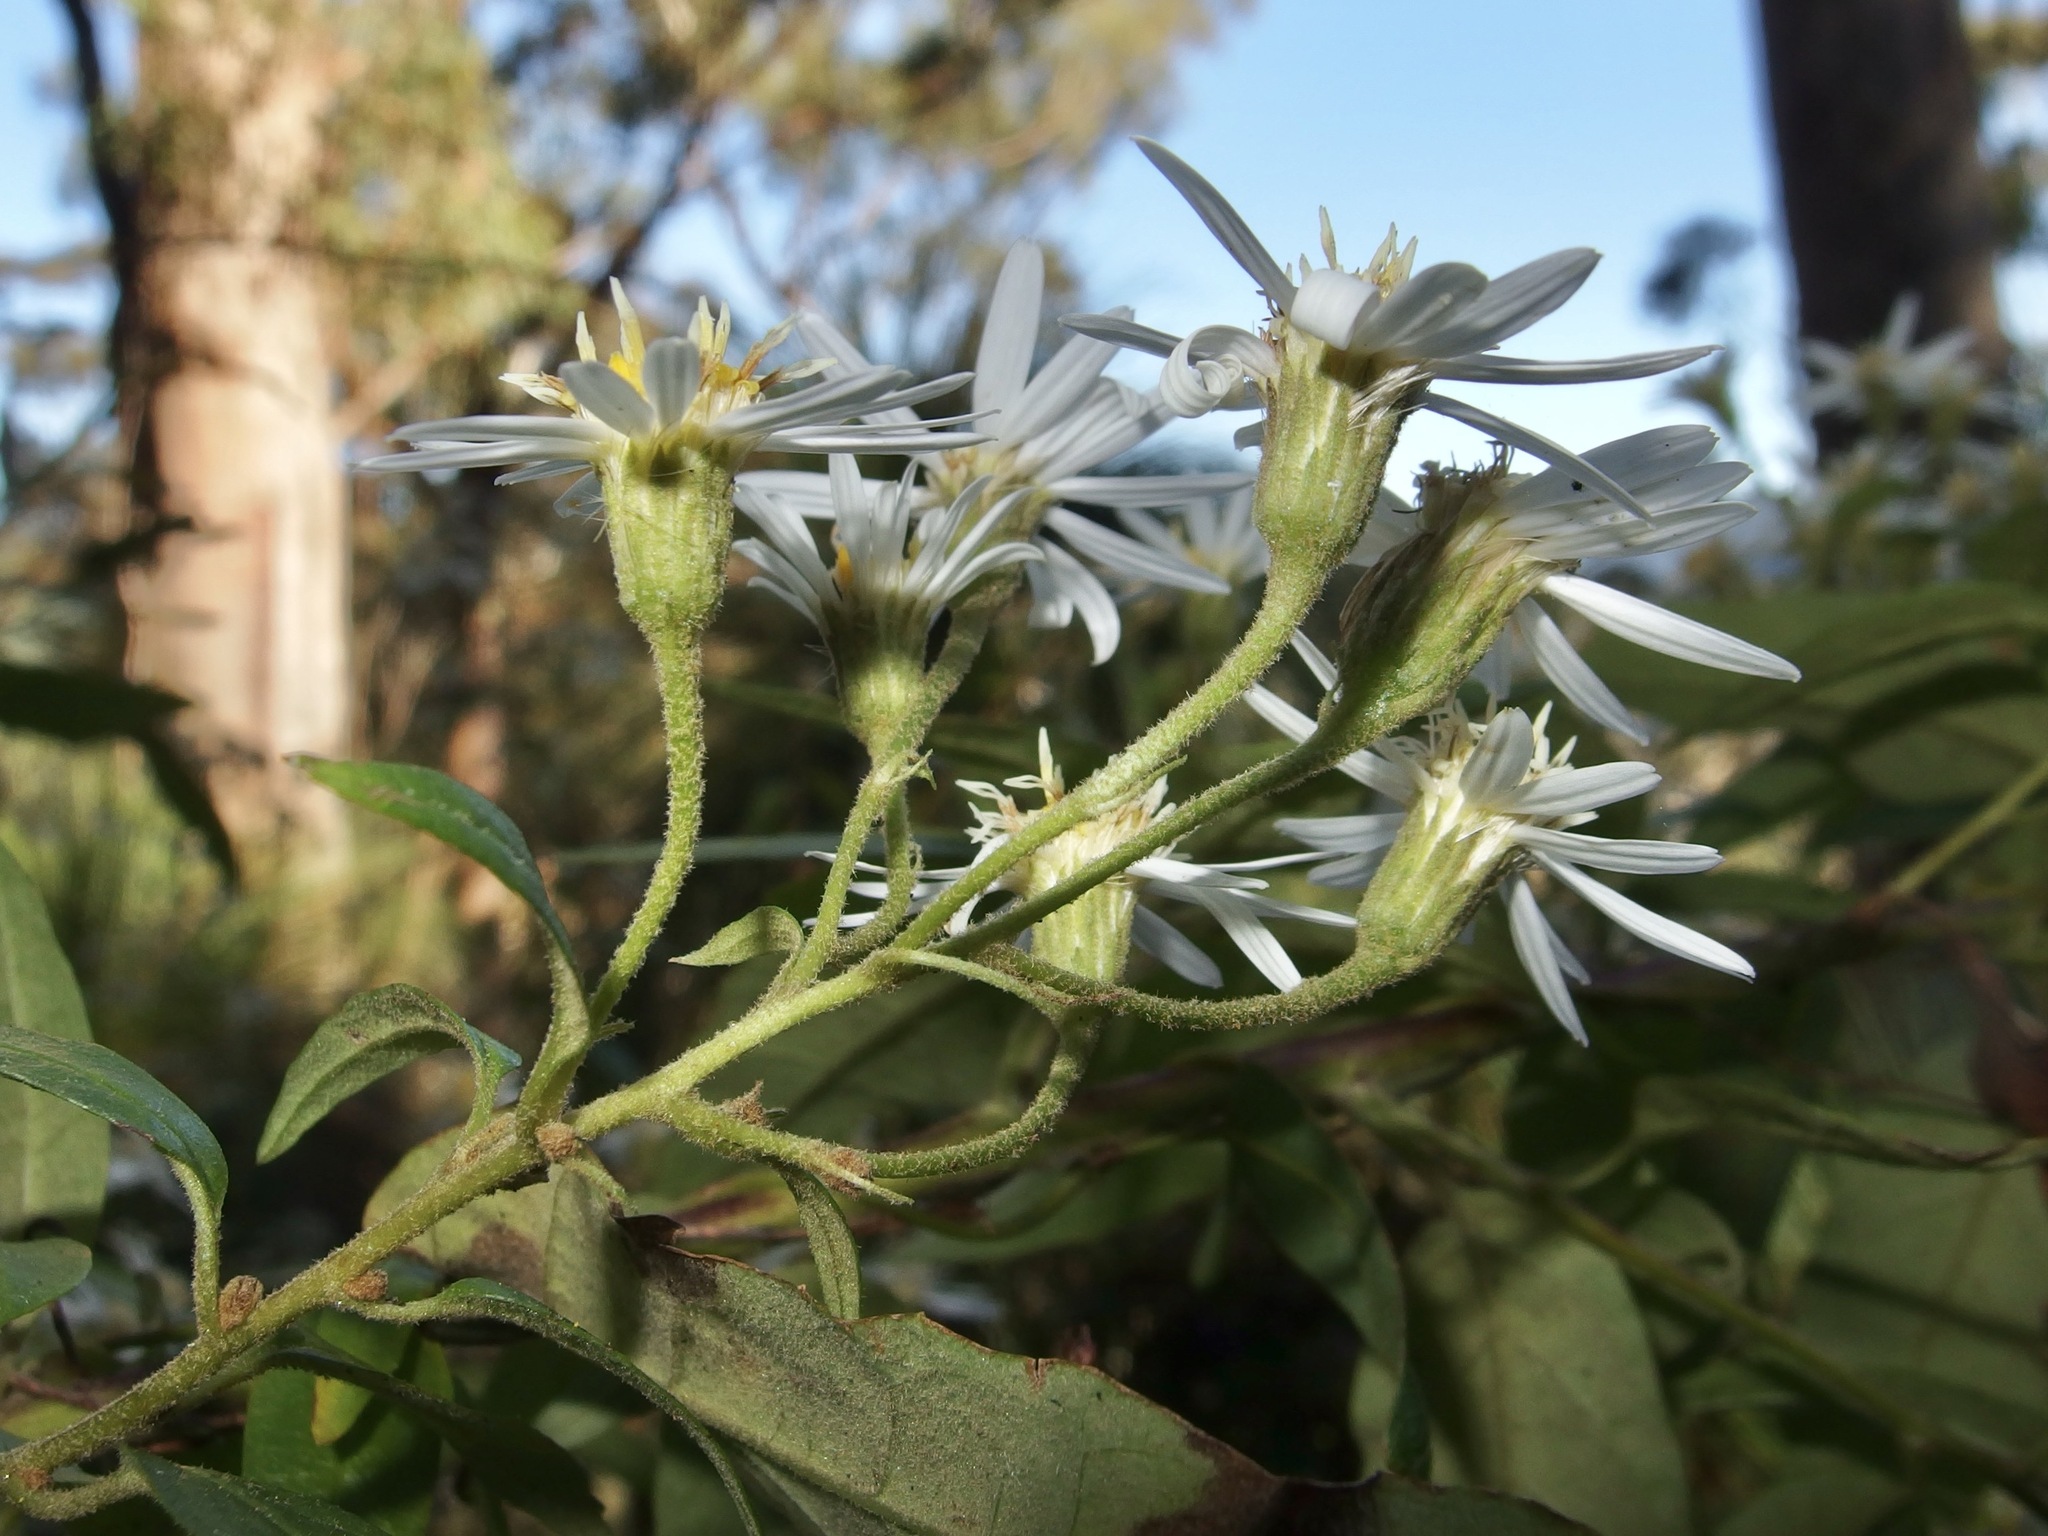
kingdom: Plantae
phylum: Tracheophyta
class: Magnoliopsida
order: Asterales
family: Asteraceae
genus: Olearia
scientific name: Olearia nernstii
